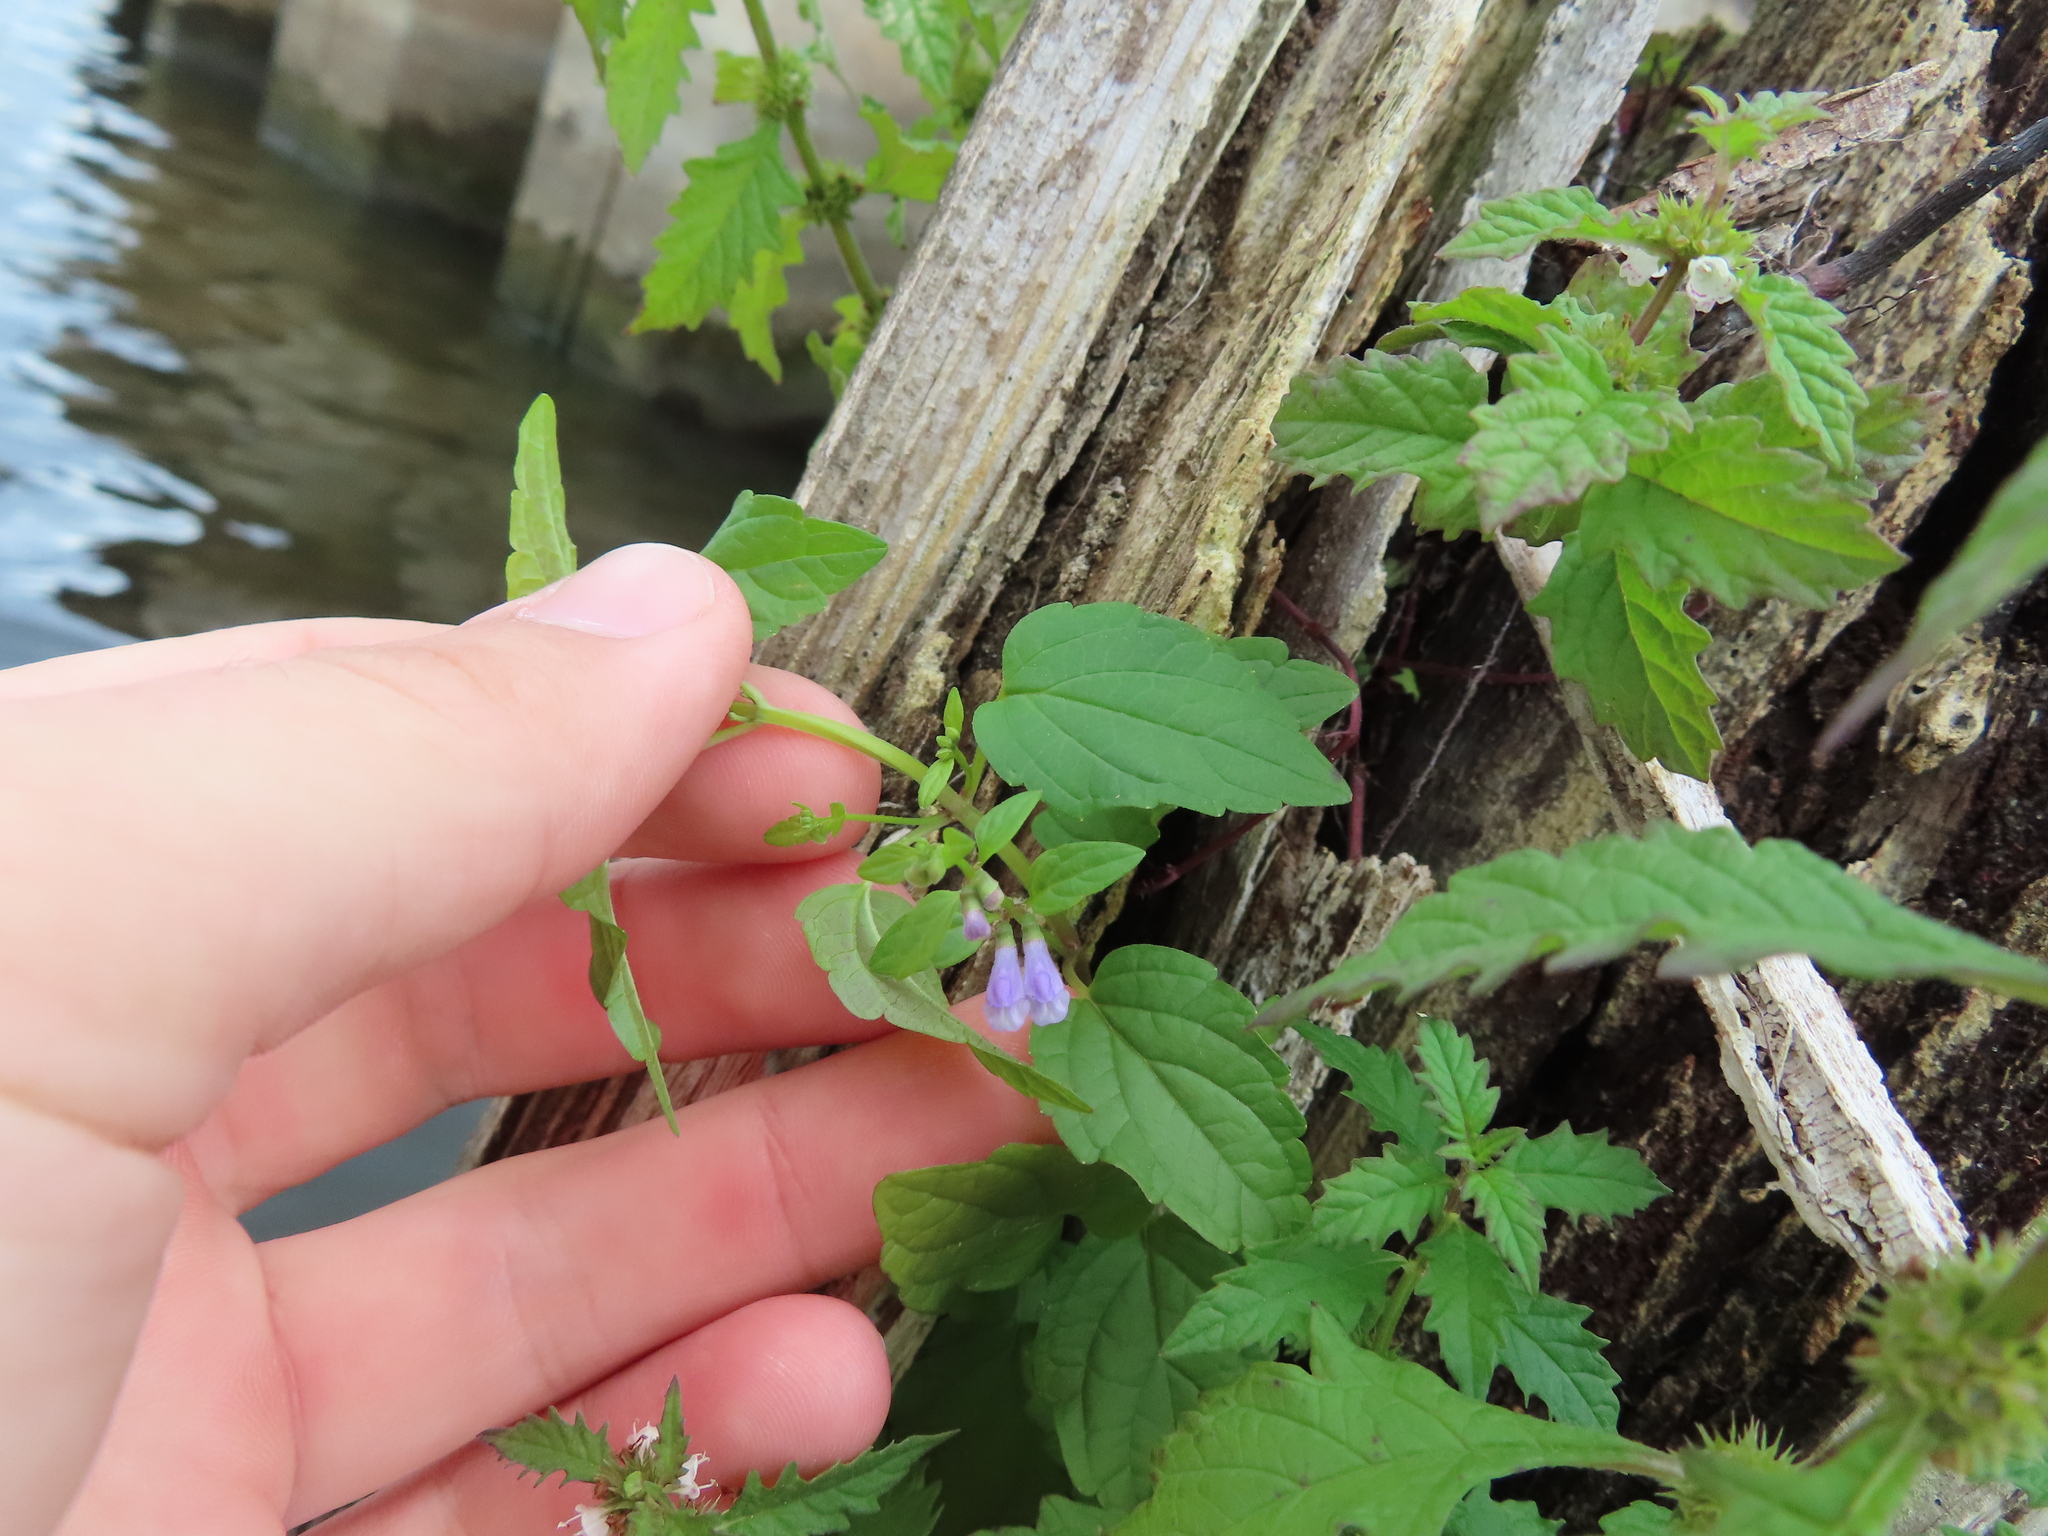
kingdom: Plantae
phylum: Tracheophyta
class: Magnoliopsida
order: Lamiales
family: Lamiaceae
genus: Scutellaria
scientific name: Scutellaria lateriflora
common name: Blue skullcap
